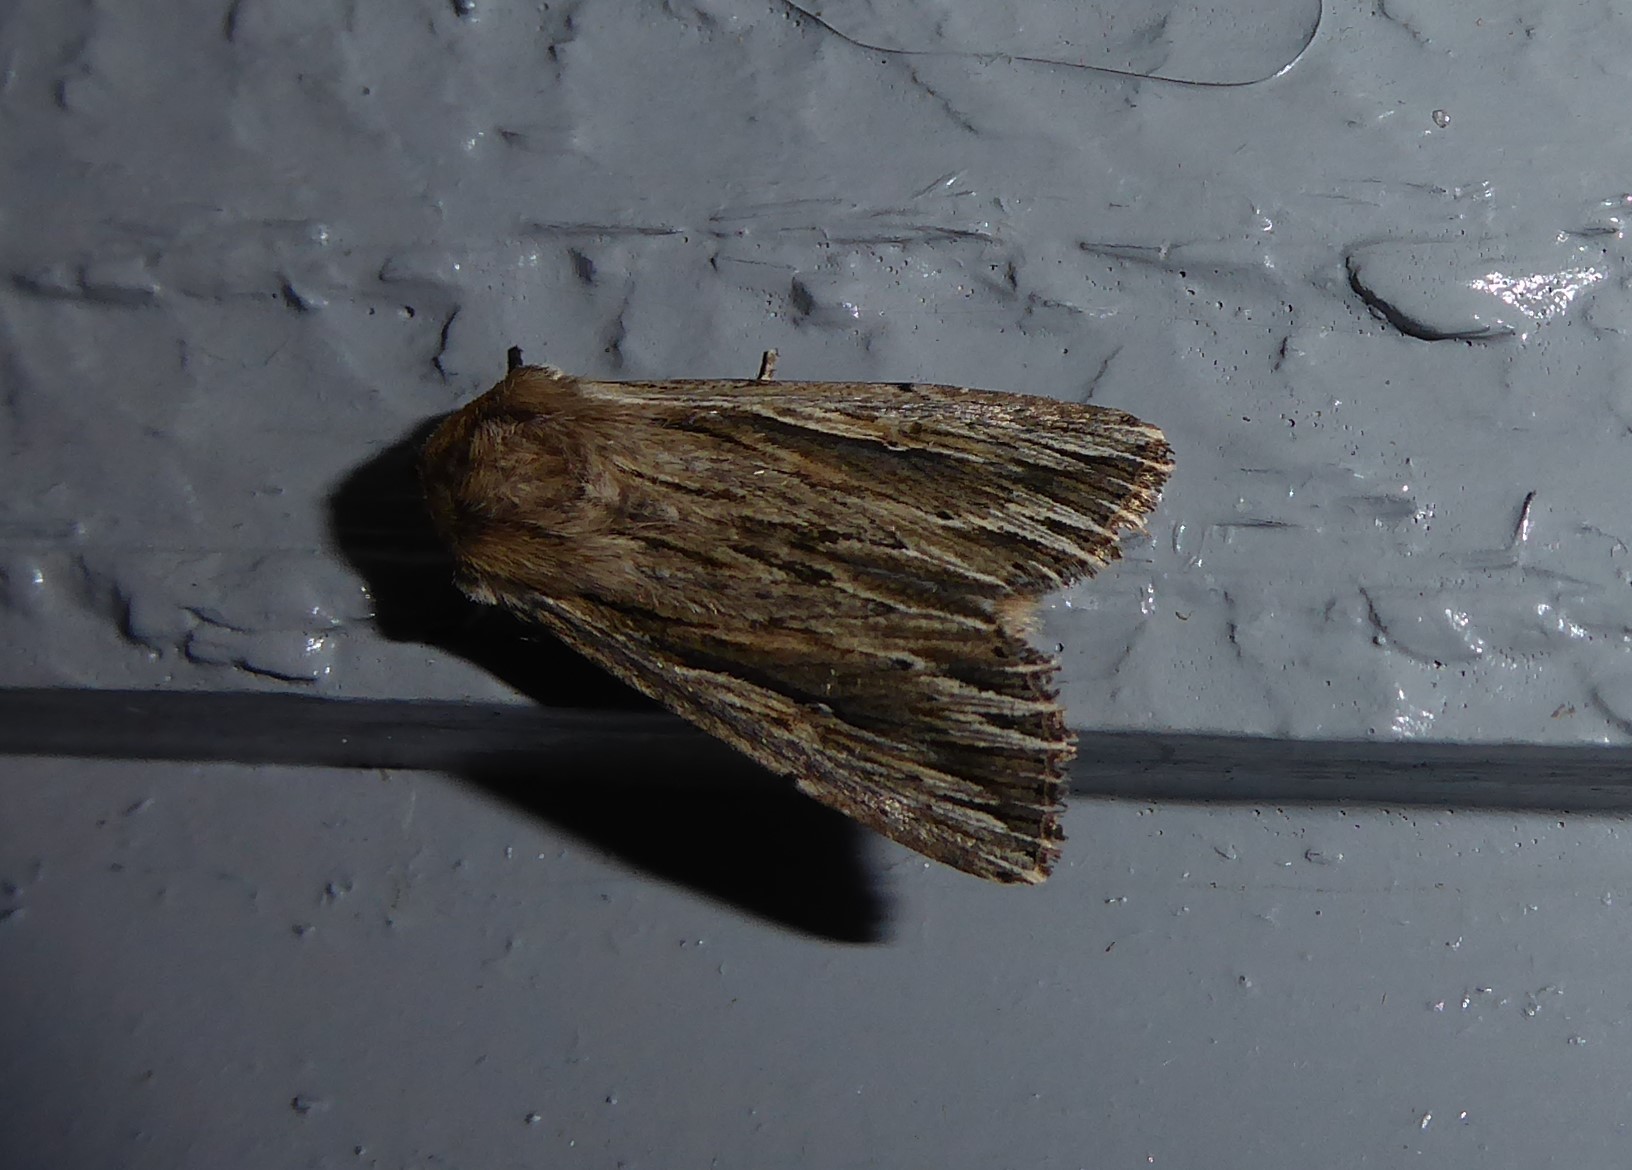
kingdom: Animalia
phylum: Arthropoda
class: Insecta
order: Lepidoptera
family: Noctuidae
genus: Persectania
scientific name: Persectania aversa
